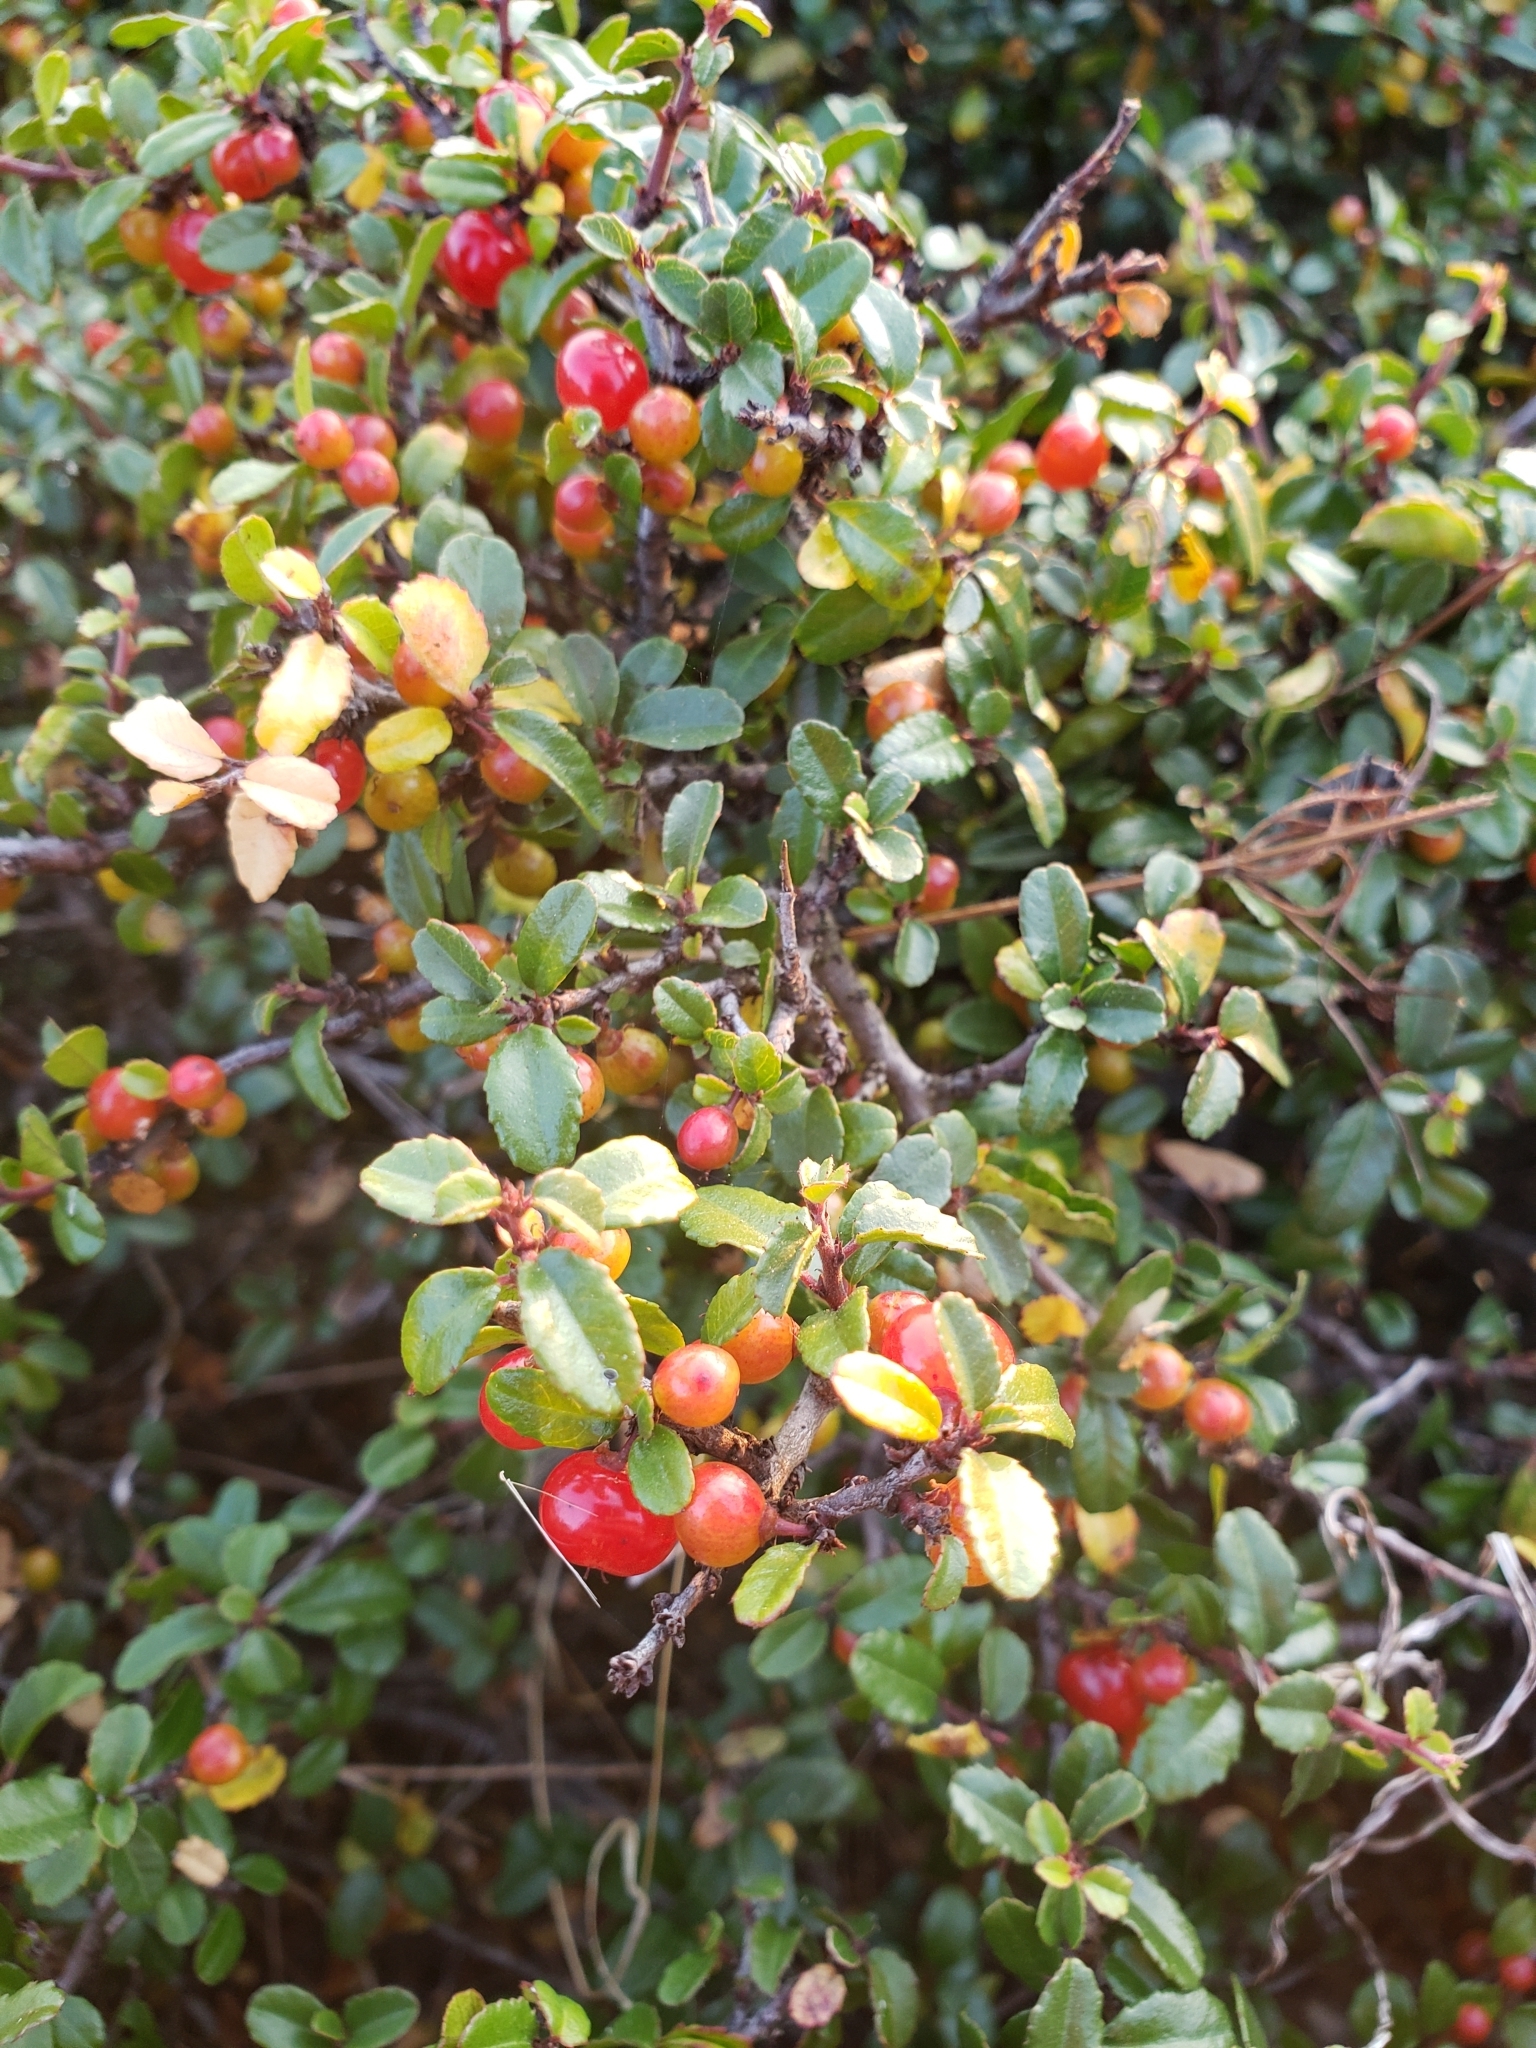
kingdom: Plantae
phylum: Tracheophyta
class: Magnoliopsida
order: Rosales
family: Rhamnaceae
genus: Endotropis
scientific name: Endotropis crocea
